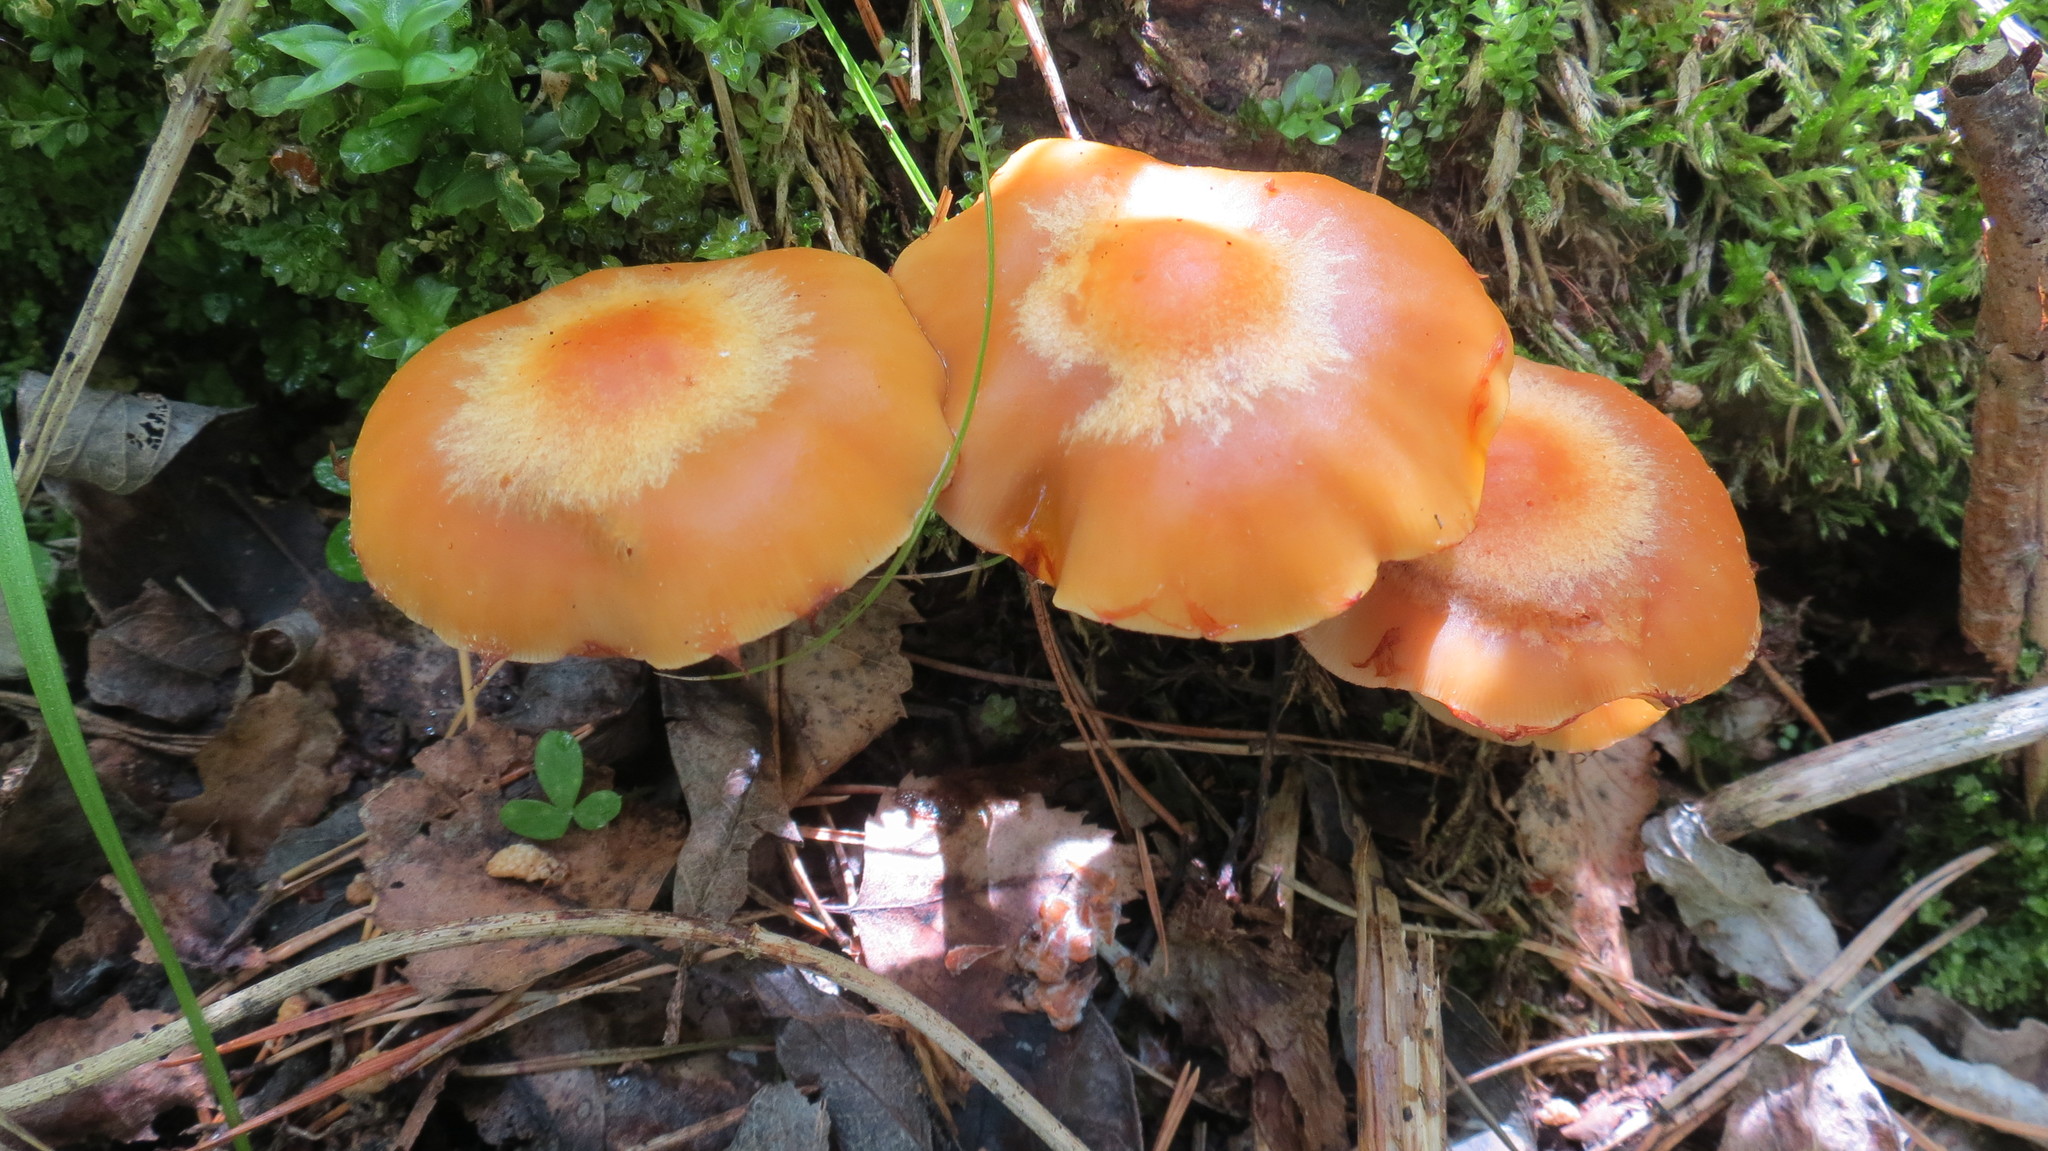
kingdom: Fungi
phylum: Basidiomycota
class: Agaricomycetes
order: Agaricales
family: Strophariaceae
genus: Kuehneromyces
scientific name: Kuehneromyces mutabilis
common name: Sheathed woodtuft
